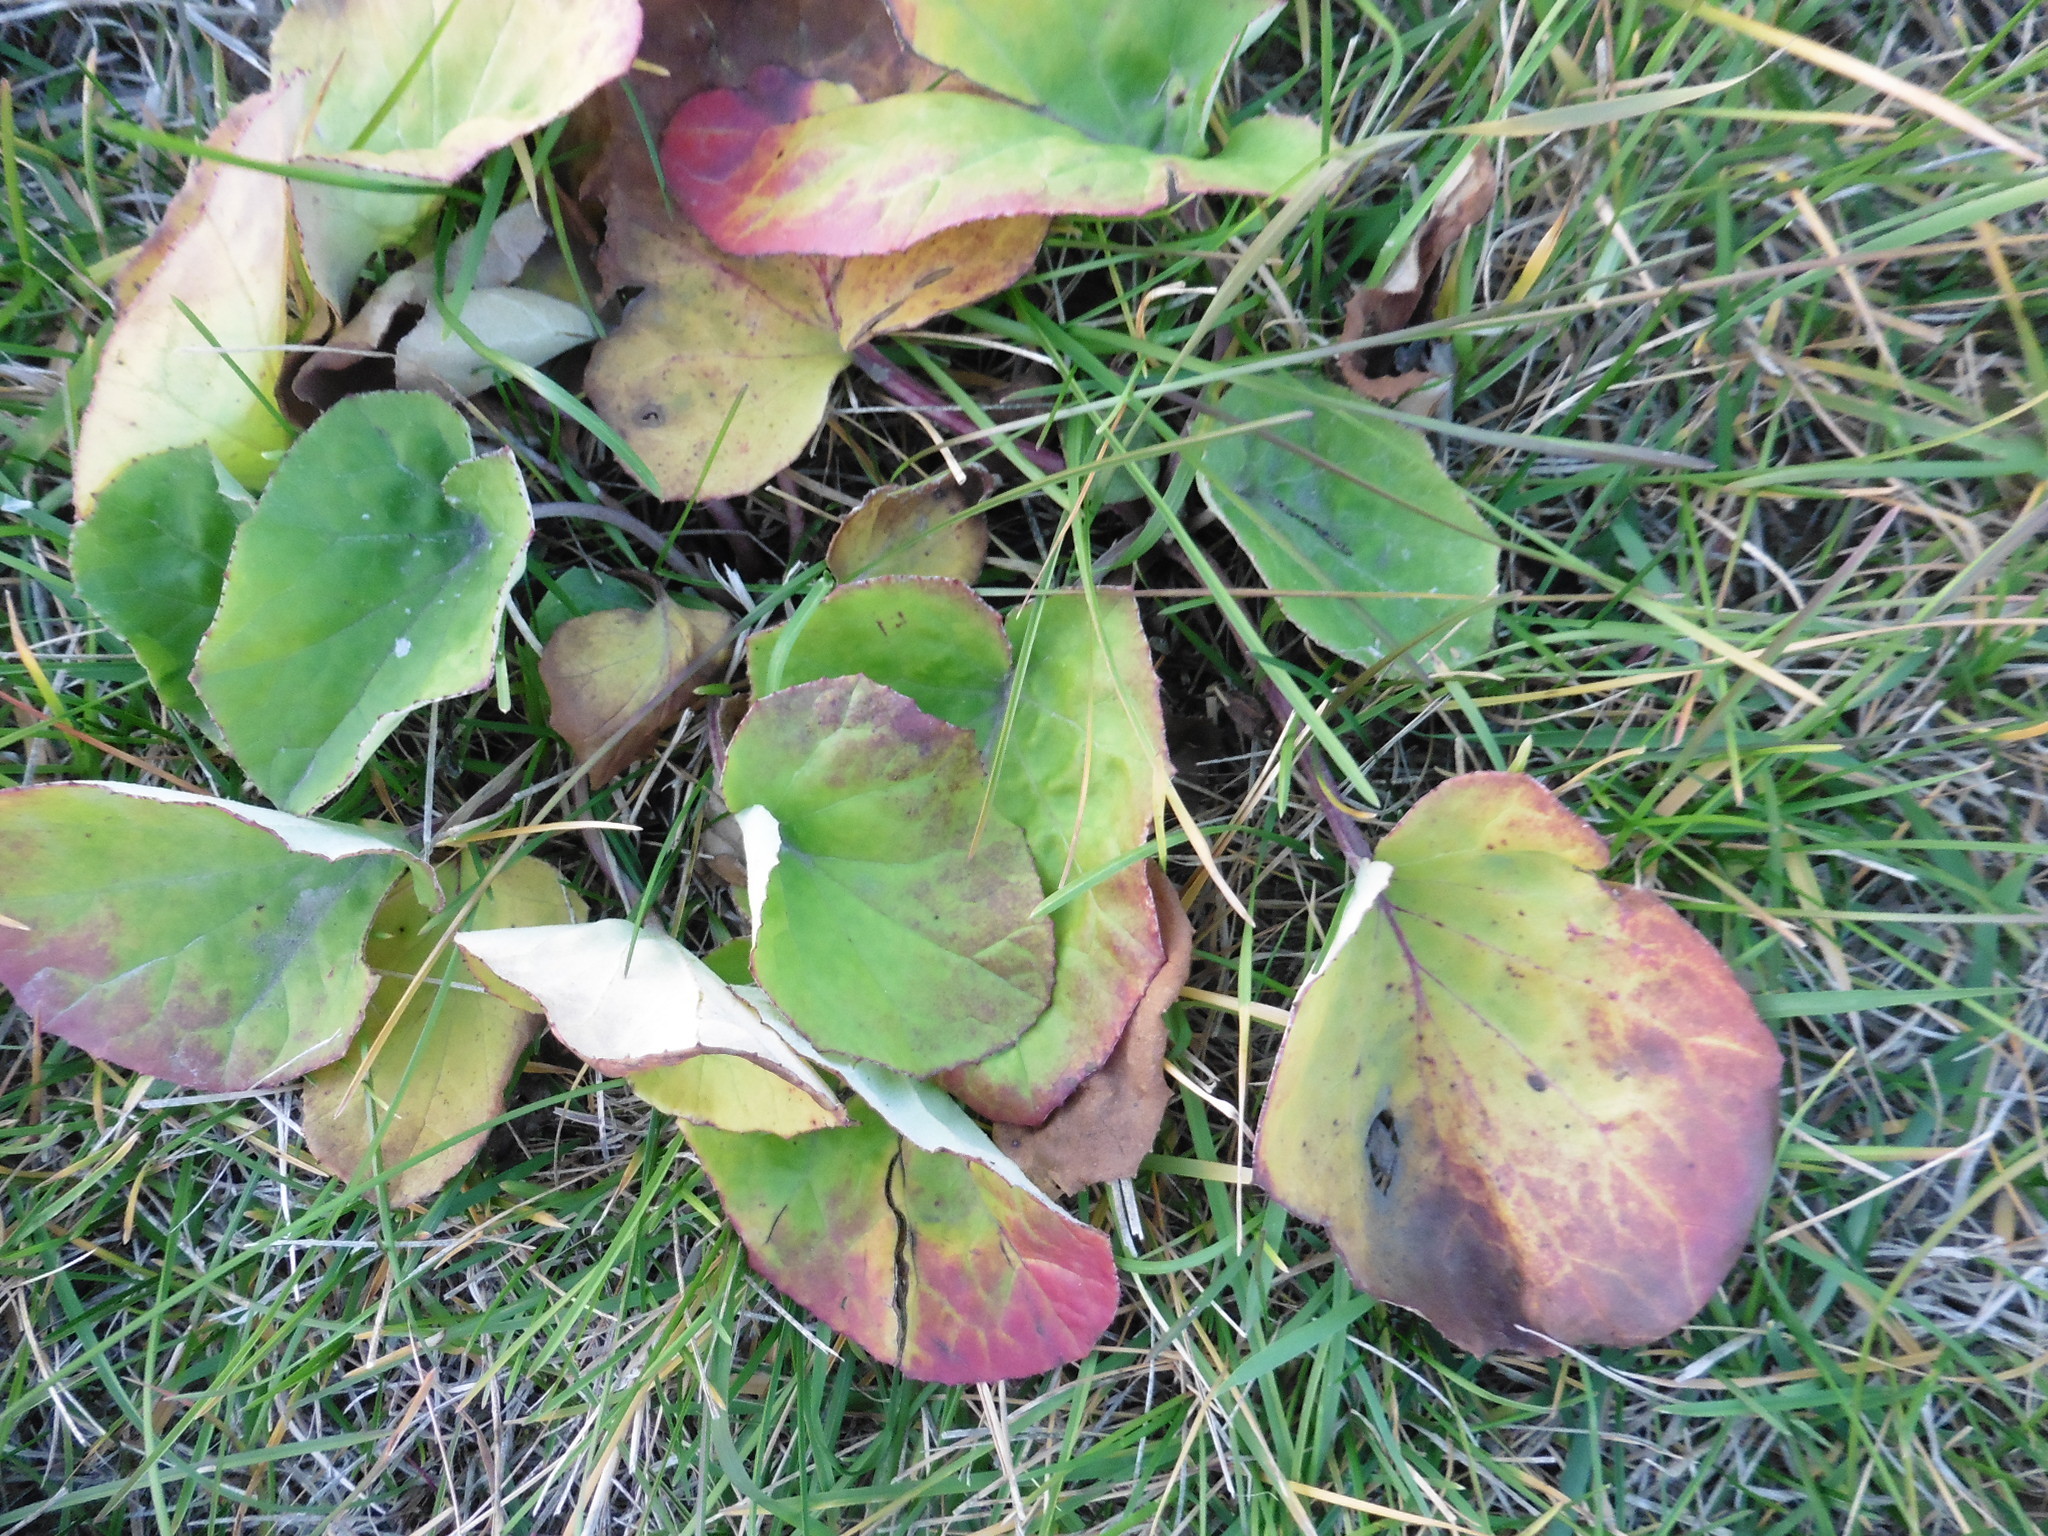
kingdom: Plantae
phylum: Tracheophyta
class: Magnoliopsida
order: Asterales
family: Asteraceae
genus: Tussilago
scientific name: Tussilago farfara
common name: Coltsfoot
